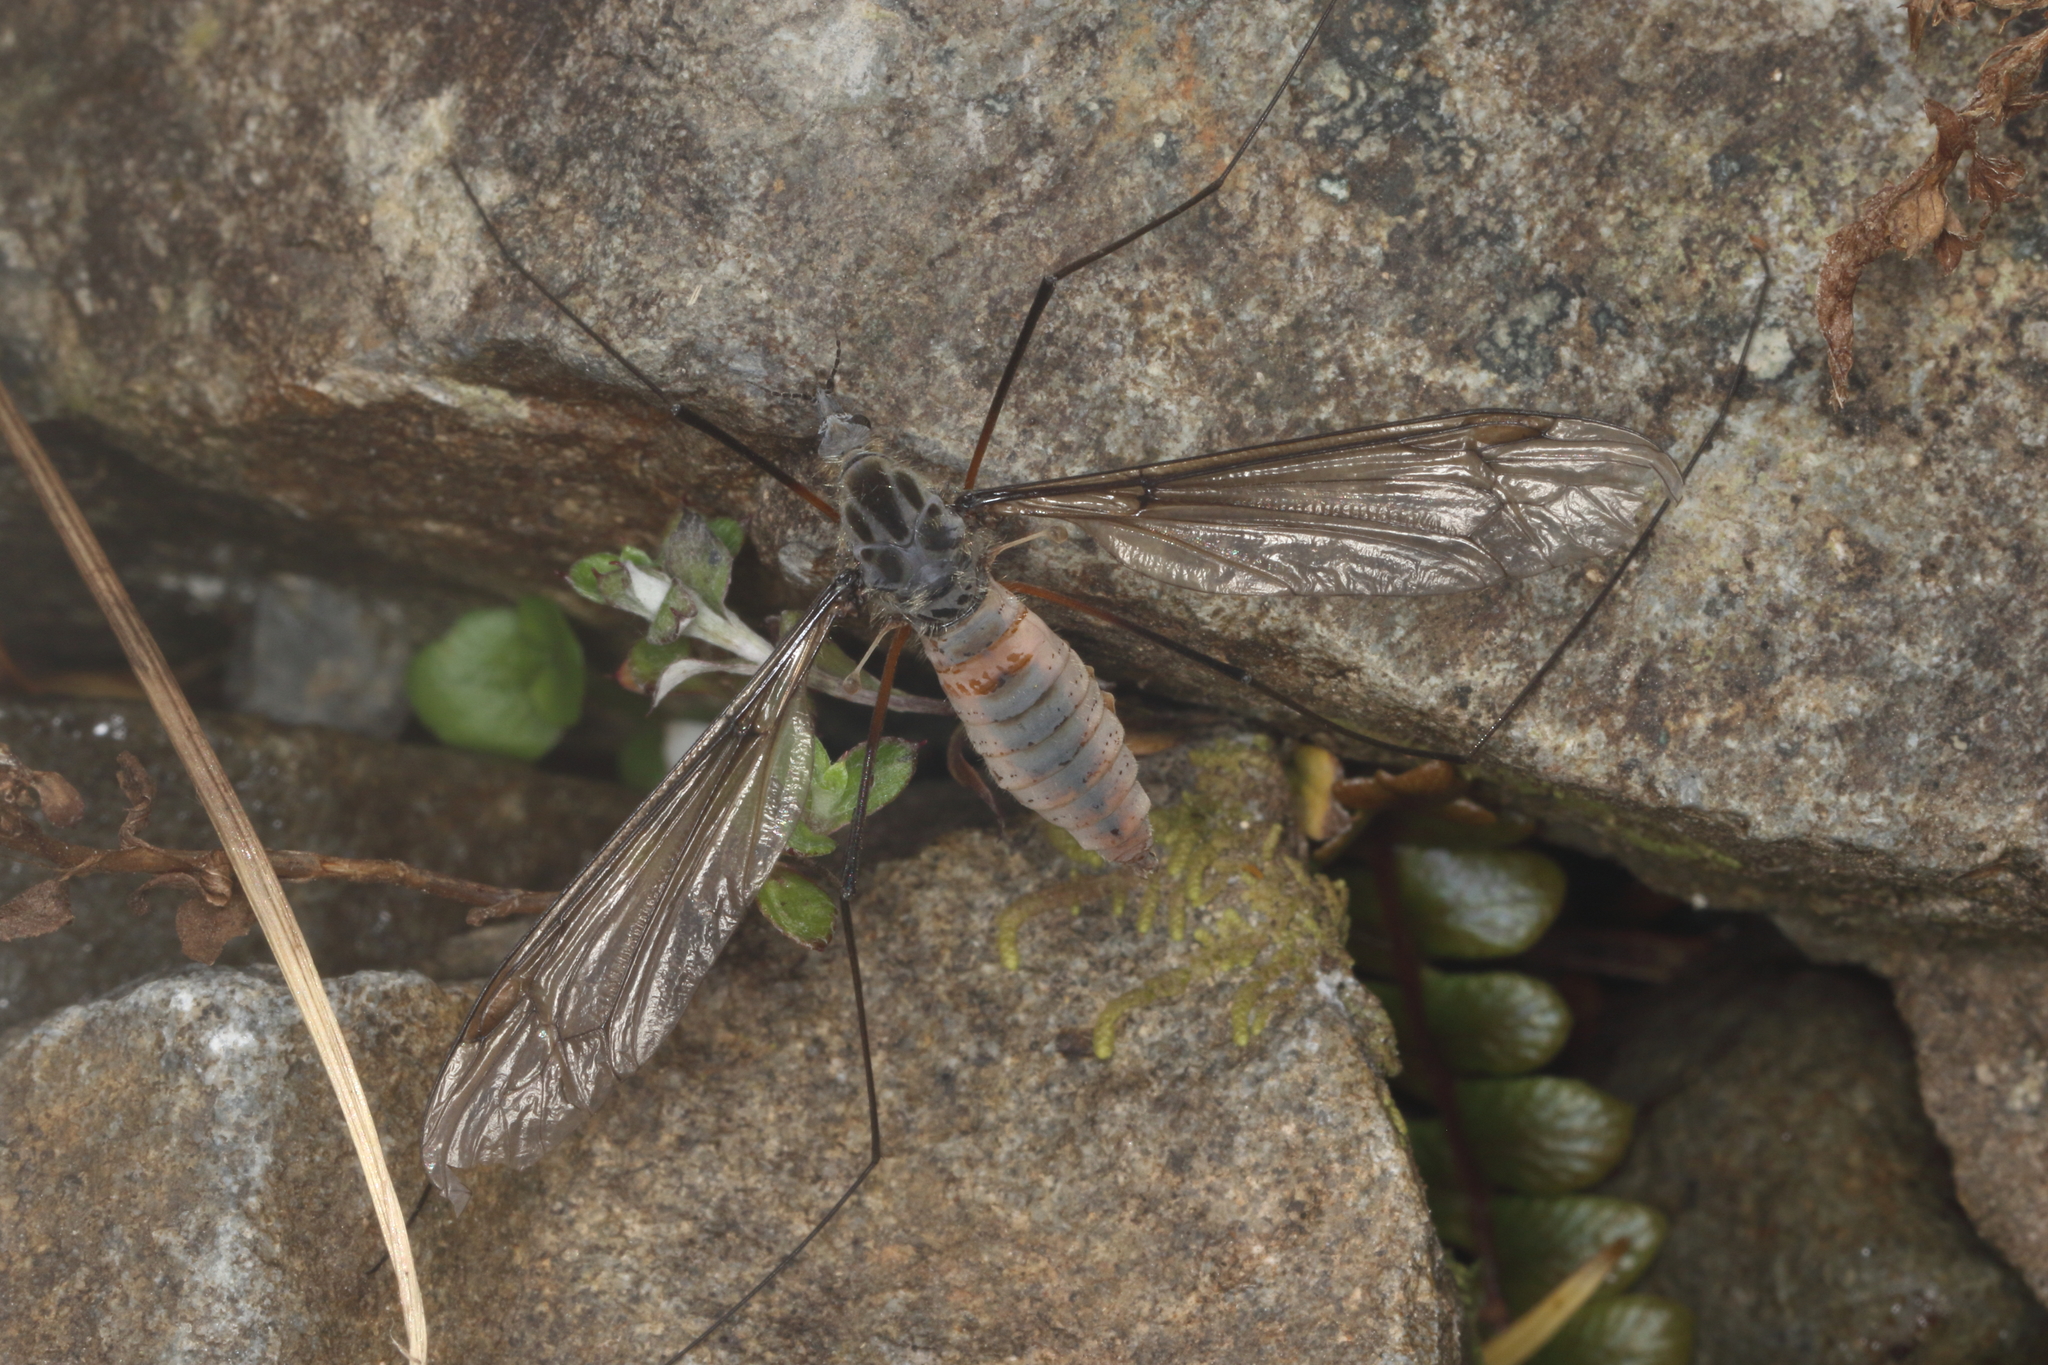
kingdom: Animalia
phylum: Arthropoda
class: Insecta
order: Diptera
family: Tipulidae
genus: Leptotarsus
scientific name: Leptotarsus montanus
